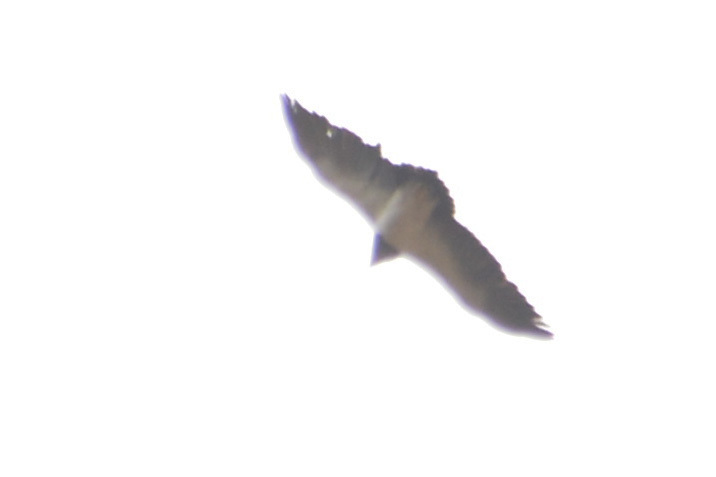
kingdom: Animalia
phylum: Chordata
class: Aves
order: Accipitriformes
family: Accipitridae
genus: Geranoaetus
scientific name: Geranoaetus melanoleucus
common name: Black-chested buzzard-eagle
